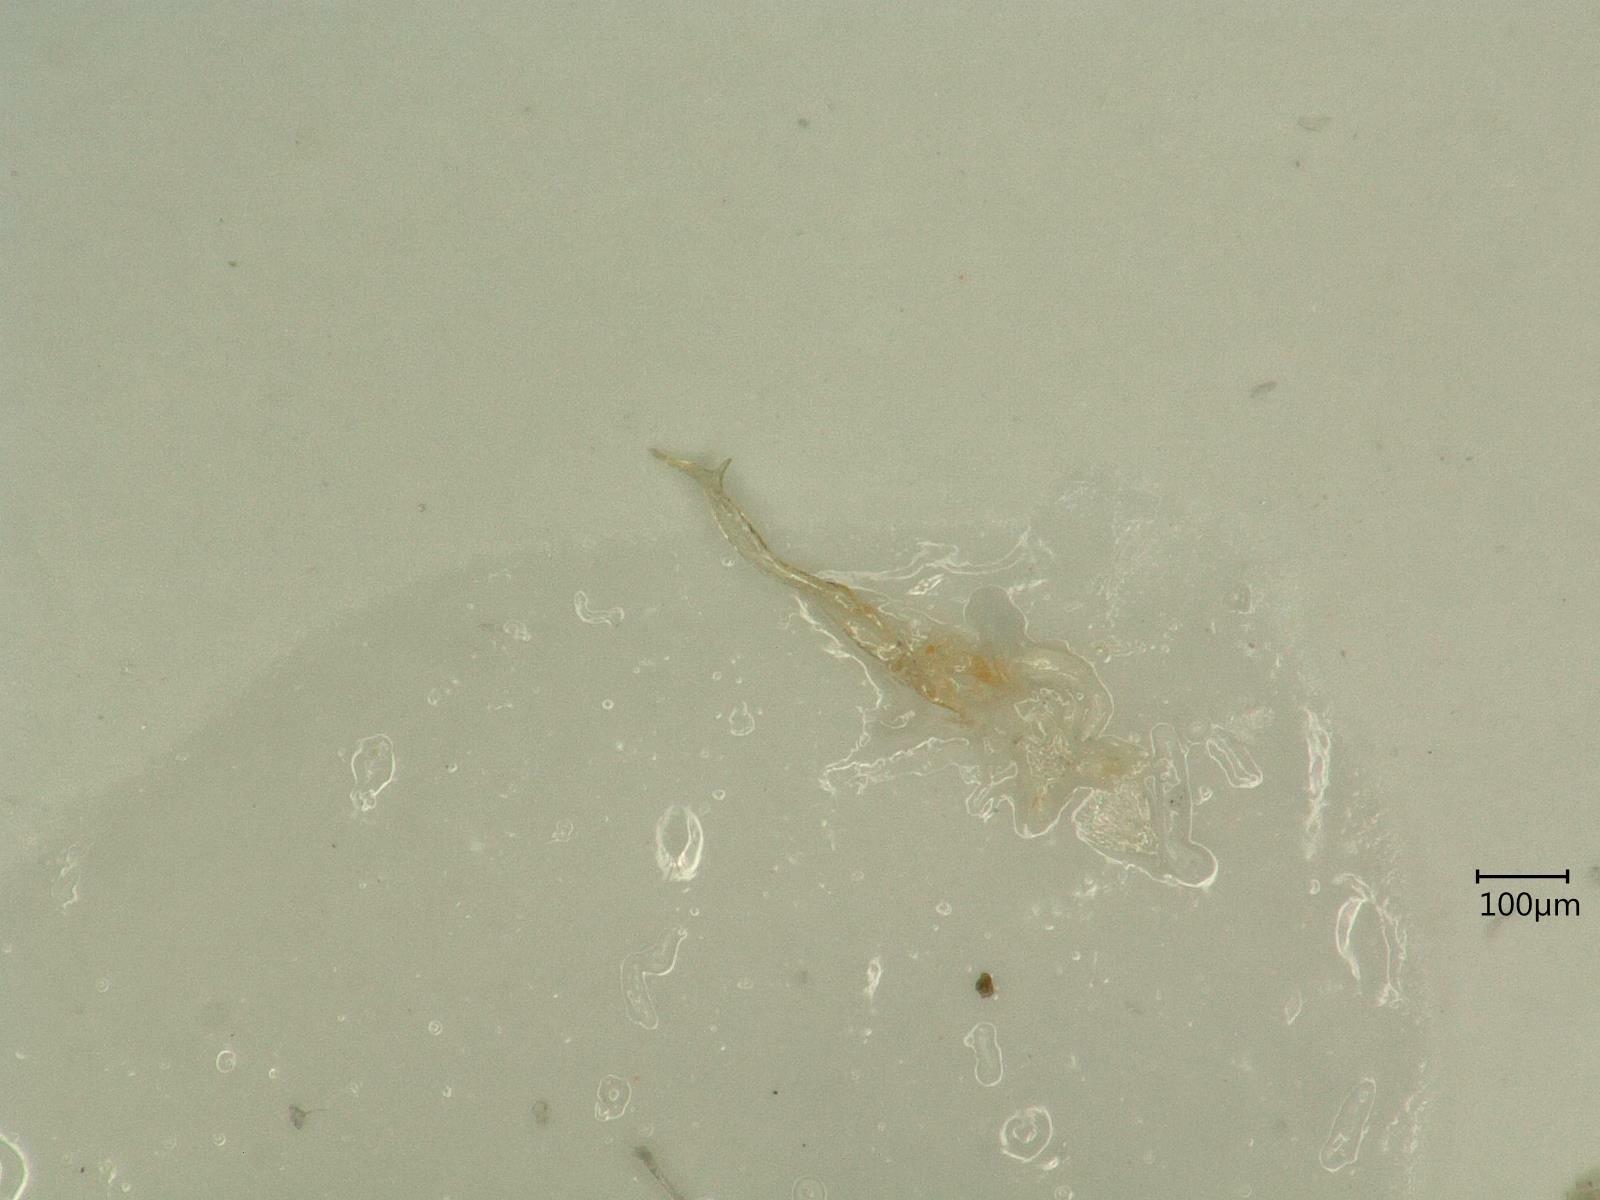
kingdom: Animalia
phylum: Arthropoda
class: Insecta
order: Hemiptera
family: Cicadellidae
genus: Linnavuoriana
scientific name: Linnavuoriana intercedens
